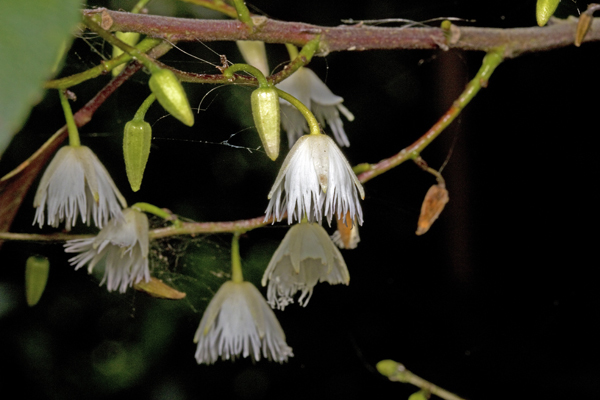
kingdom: Plantae
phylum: Tracheophyta
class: Magnoliopsida
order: Oxalidales
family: Elaeocarpaceae
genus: Elaeocarpus
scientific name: Elaeocarpus reticulatus
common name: Ash quandong
